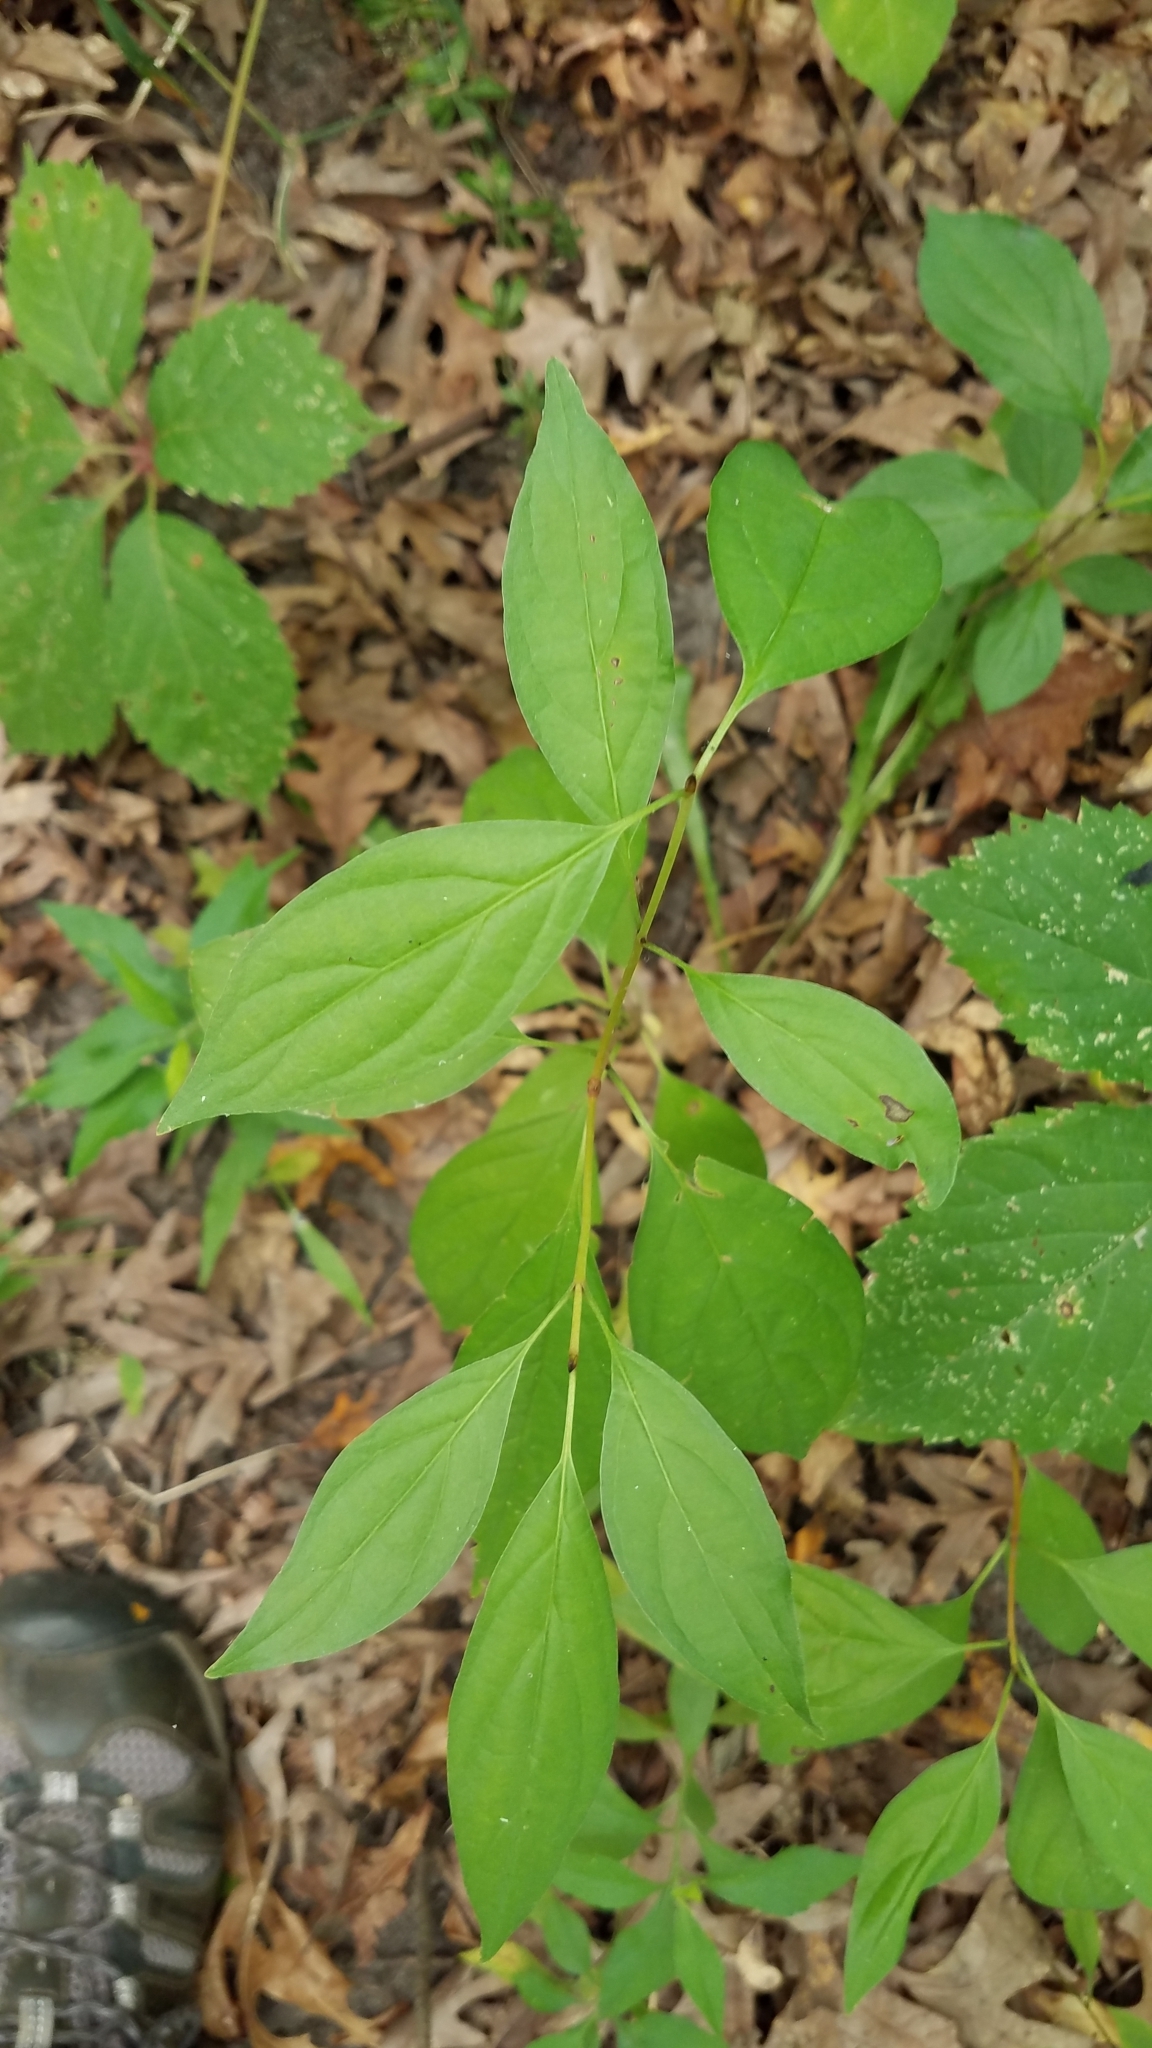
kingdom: Plantae
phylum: Tracheophyta
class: Magnoliopsida
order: Cornales
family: Cornaceae
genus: Cornus
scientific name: Cornus alternifolia
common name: Pagoda dogwood
